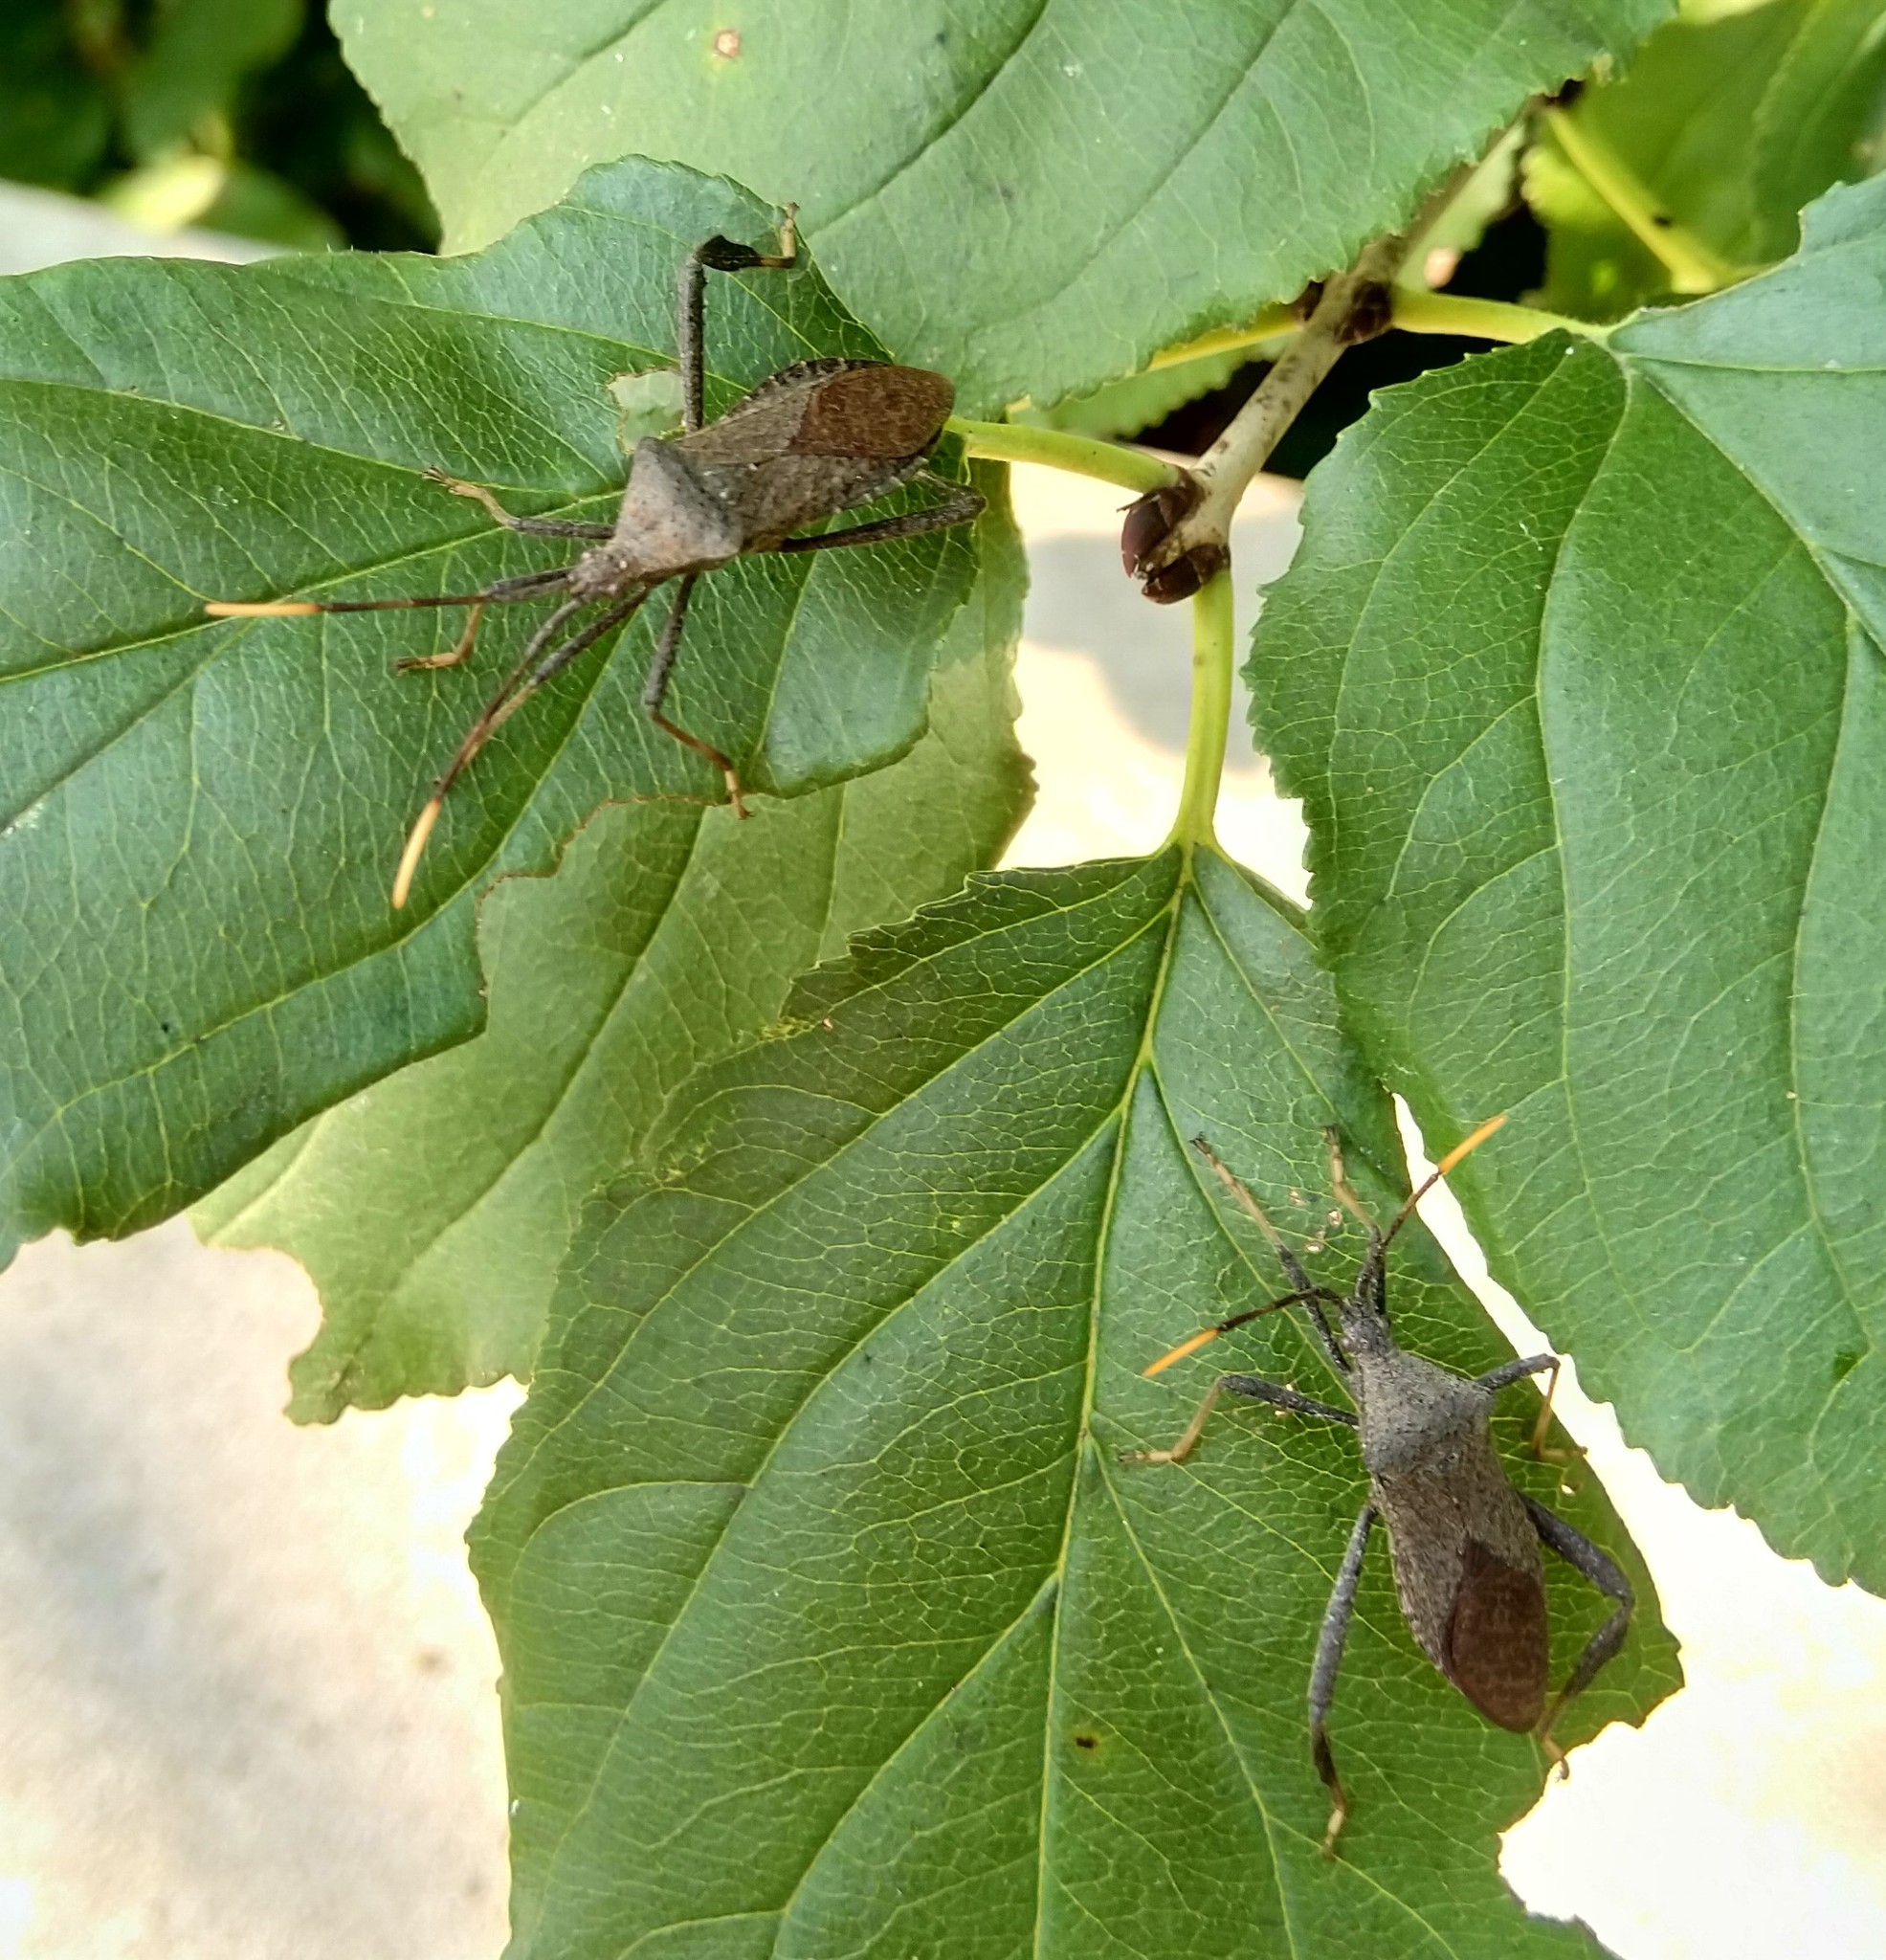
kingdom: Animalia
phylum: Arthropoda
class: Insecta
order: Hemiptera
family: Coreidae
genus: Acanthocephala
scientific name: Acanthocephala terminalis
